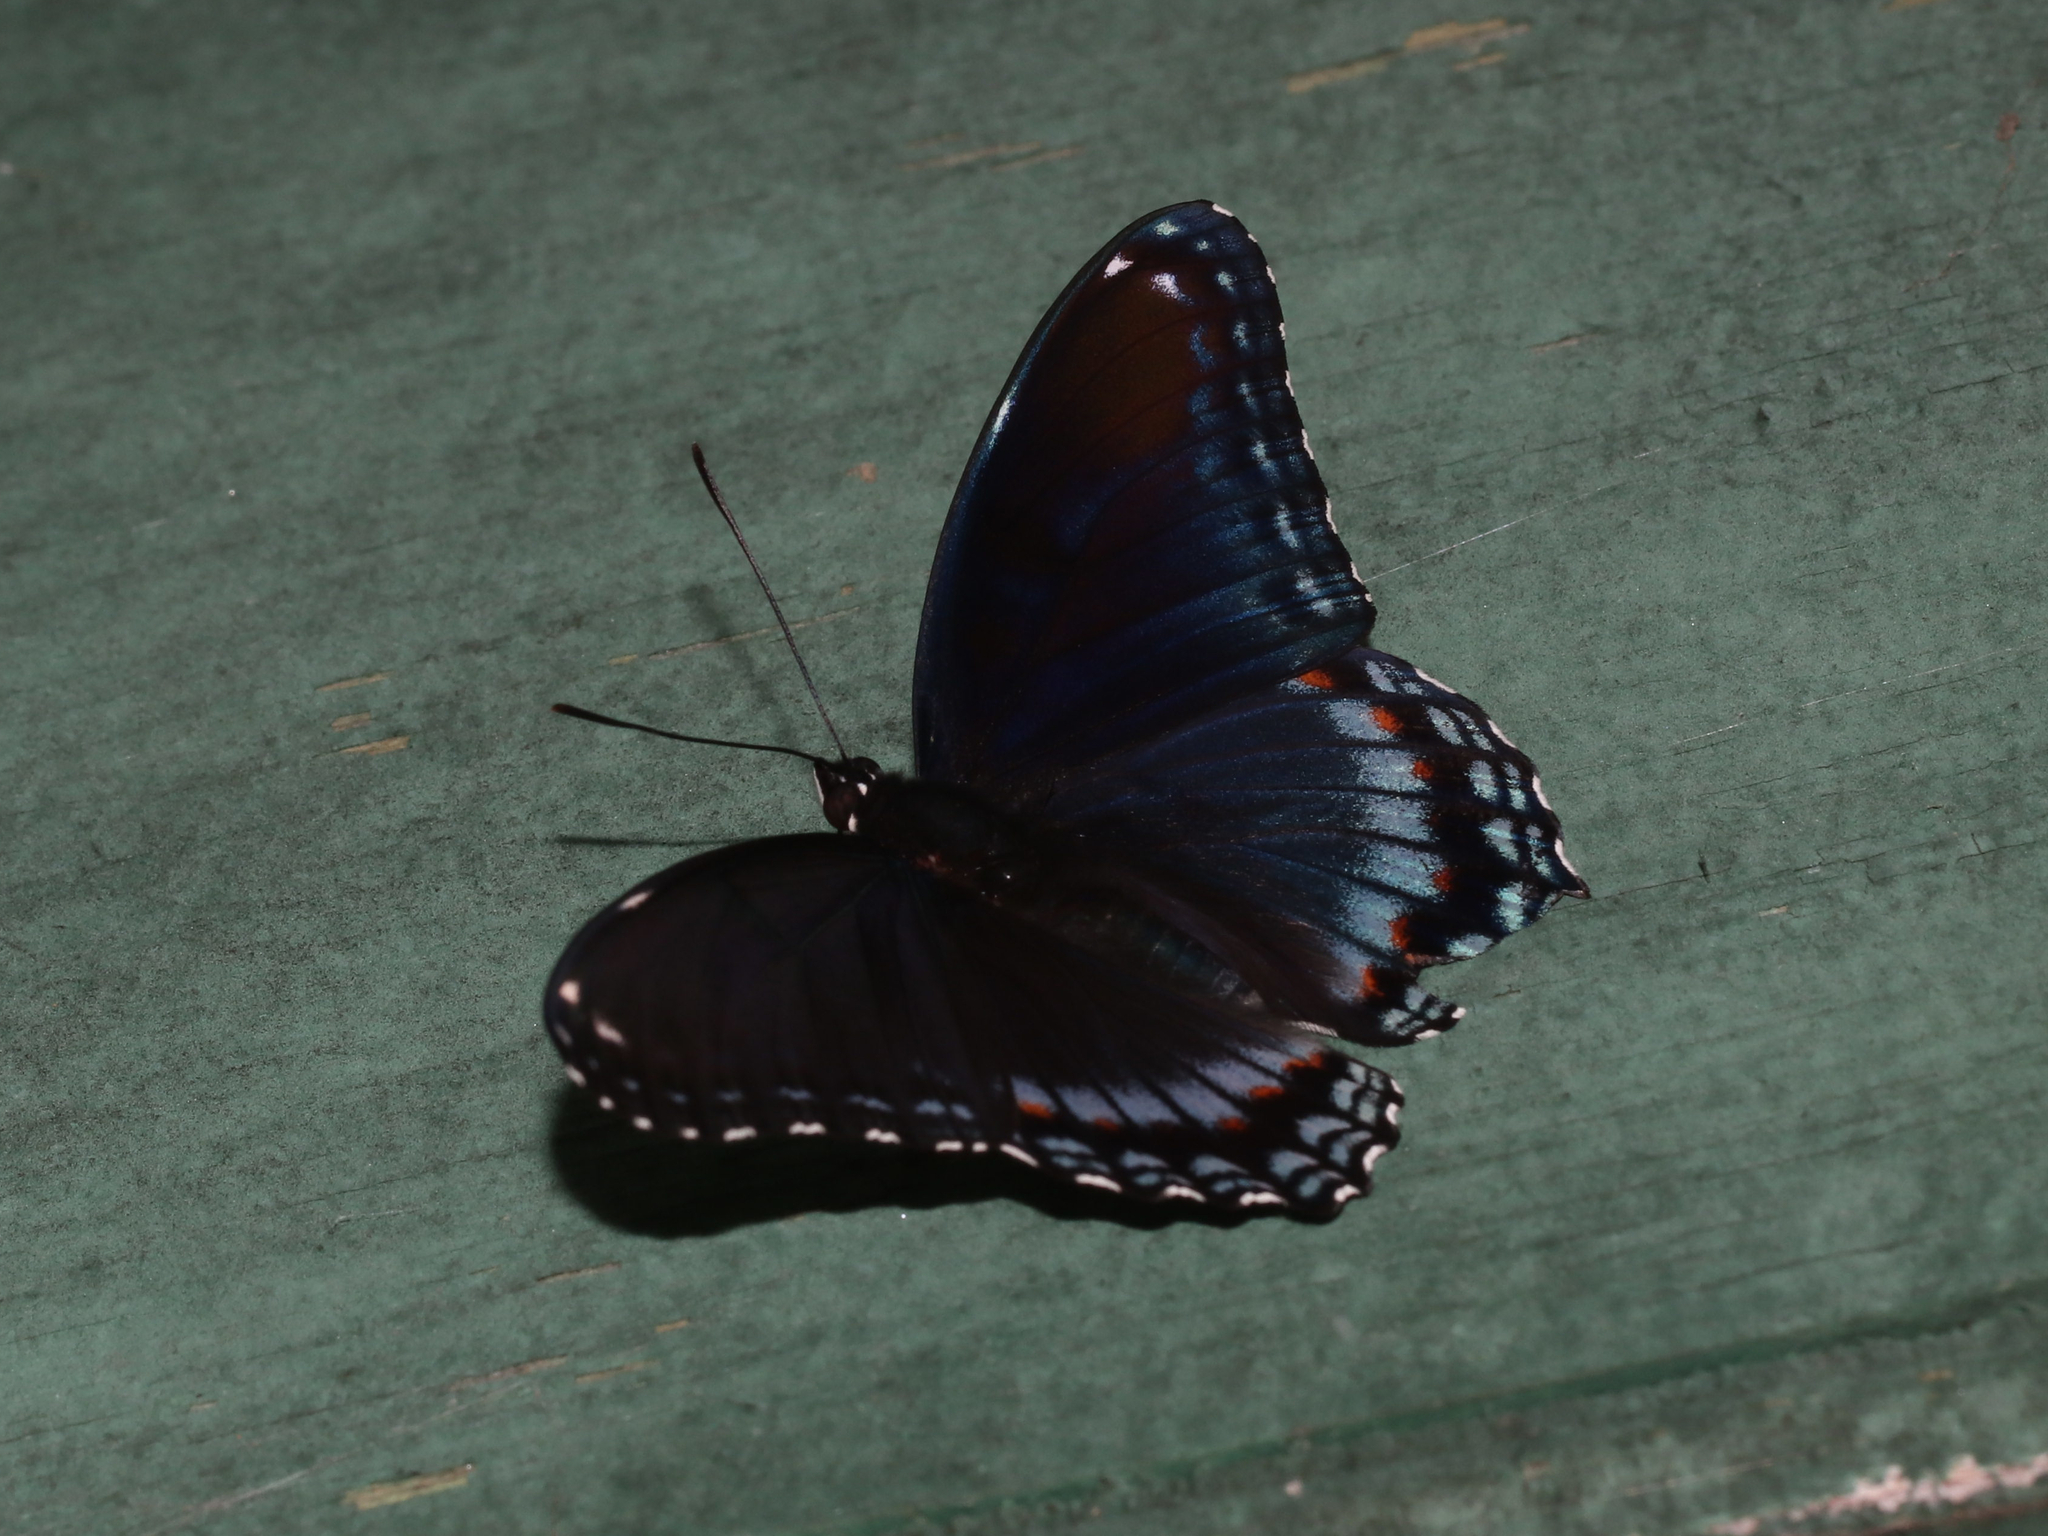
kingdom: Animalia
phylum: Arthropoda
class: Insecta
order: Lepidoptera
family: Nymphalidae
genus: Limenitis
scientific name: Limenitis arthemis
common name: Red-spotted admiral
